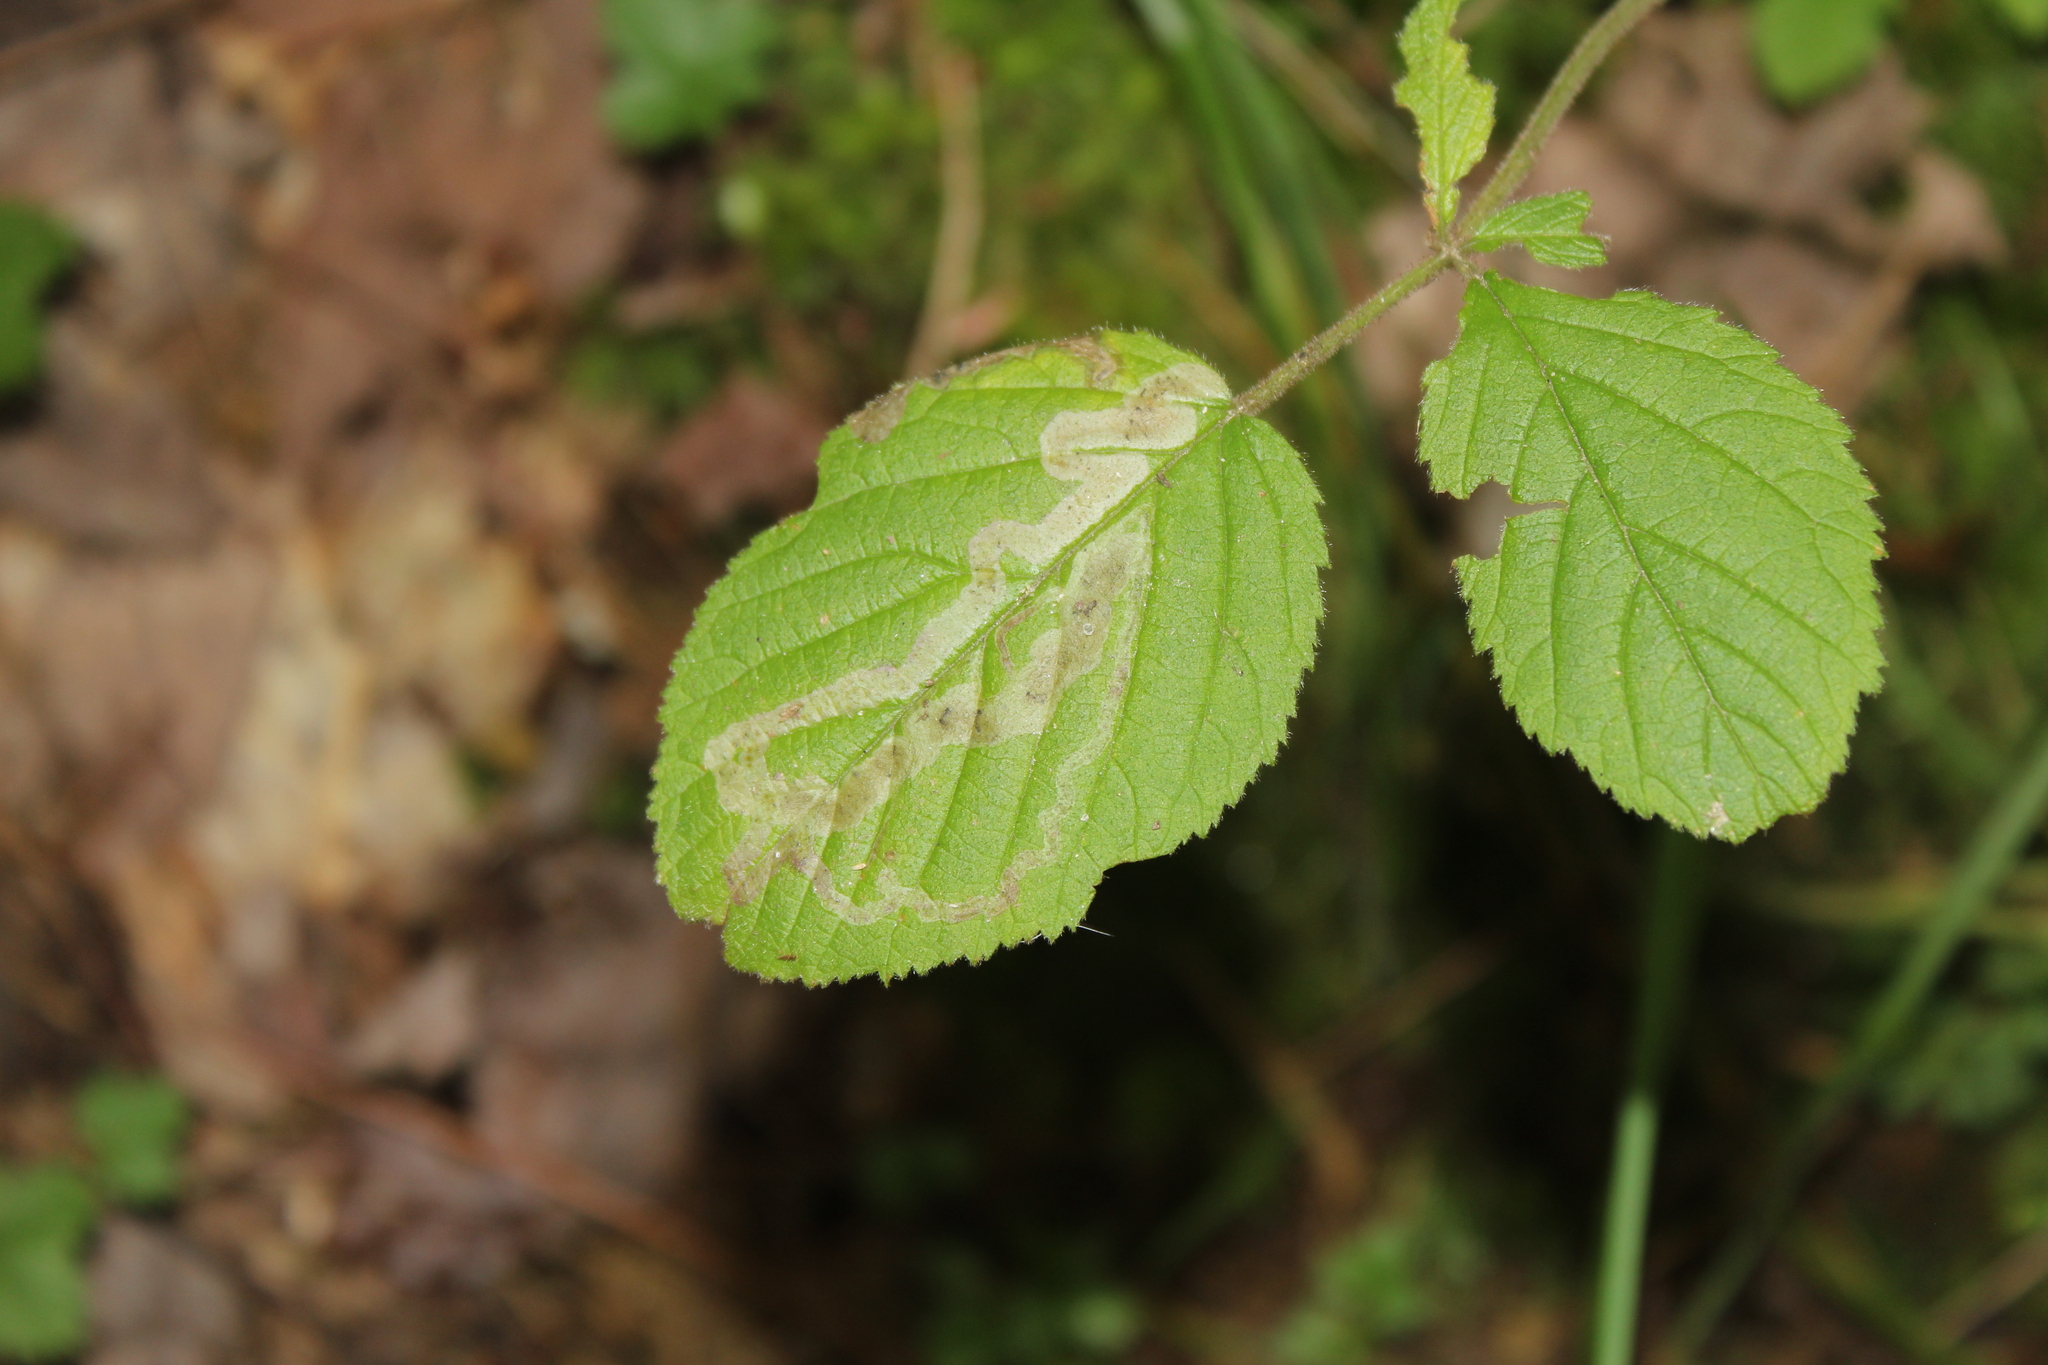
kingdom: Animalia
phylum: Arthropoda
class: Insecta
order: Diptera
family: Agromyzidae
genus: Agromyza
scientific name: Agromyza vockerothi
